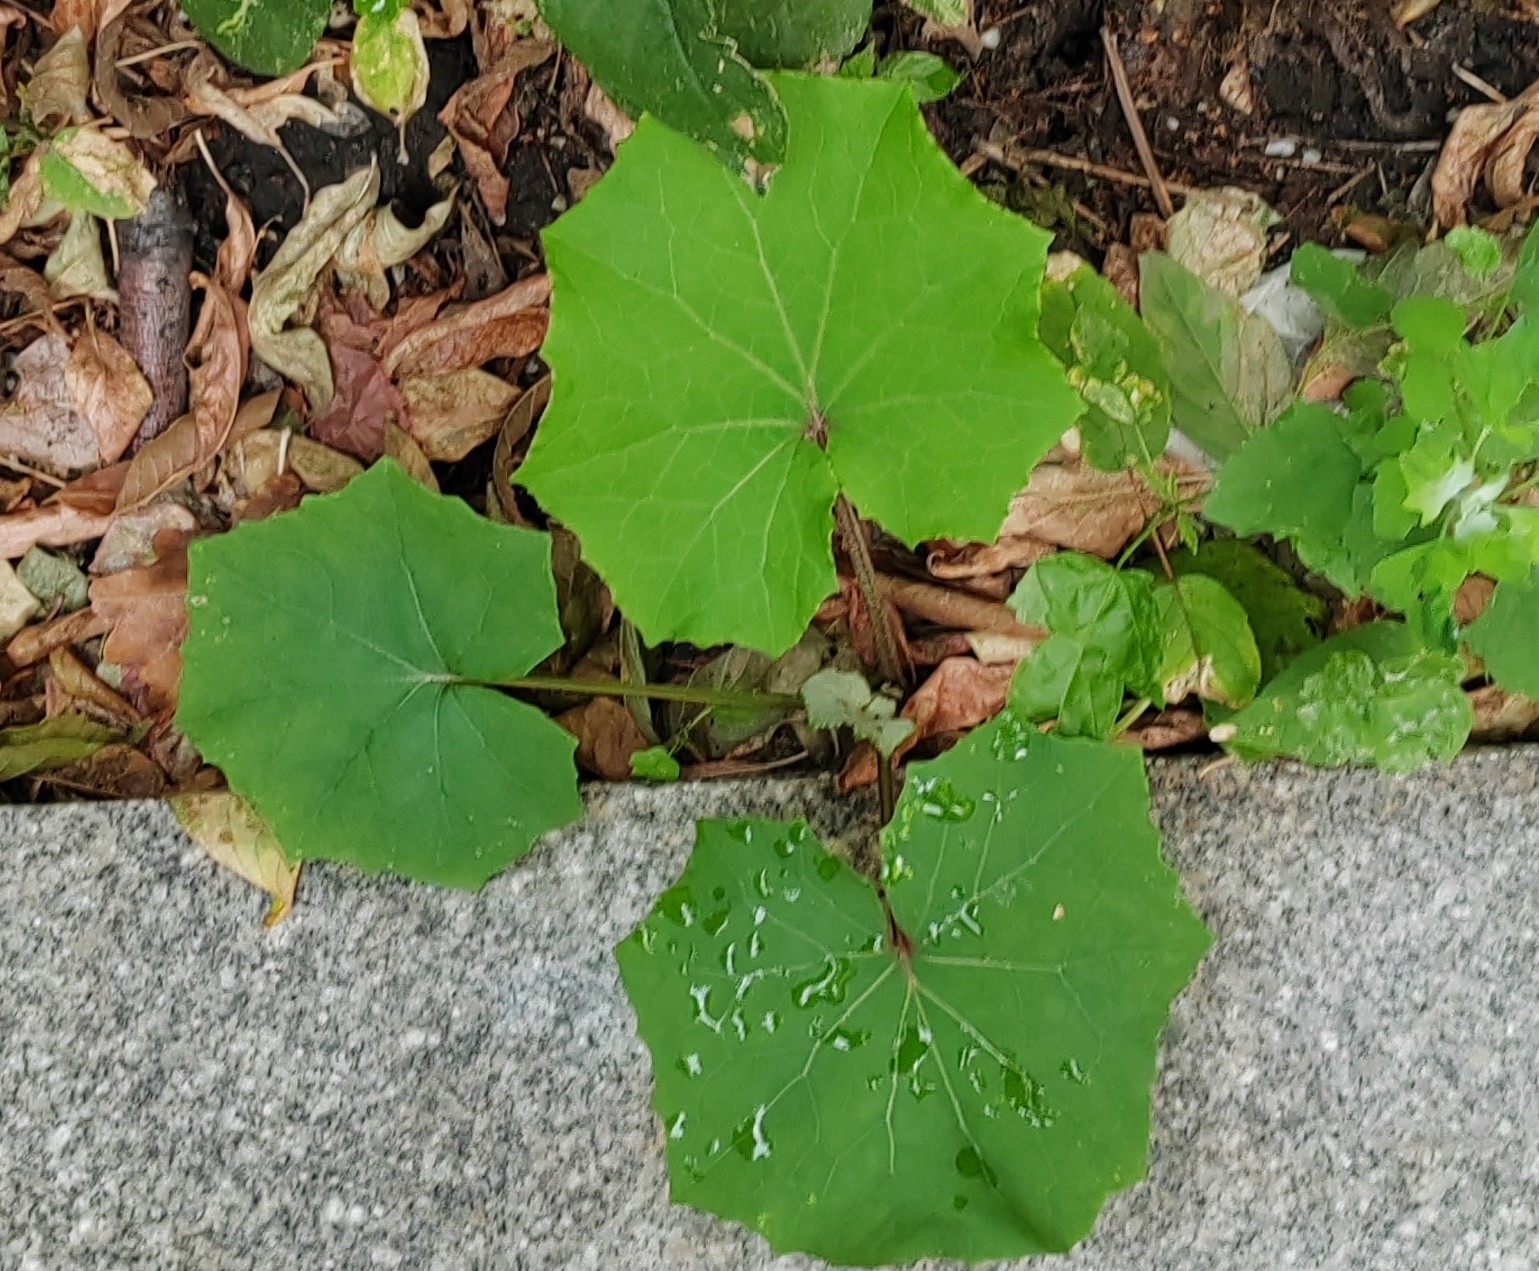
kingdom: Plantae
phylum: Tracheophyta
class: Magnoliopsida
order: Asterales
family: Asteraceae
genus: Tussilago
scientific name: Tussilago farfara
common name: Coltsfoot
